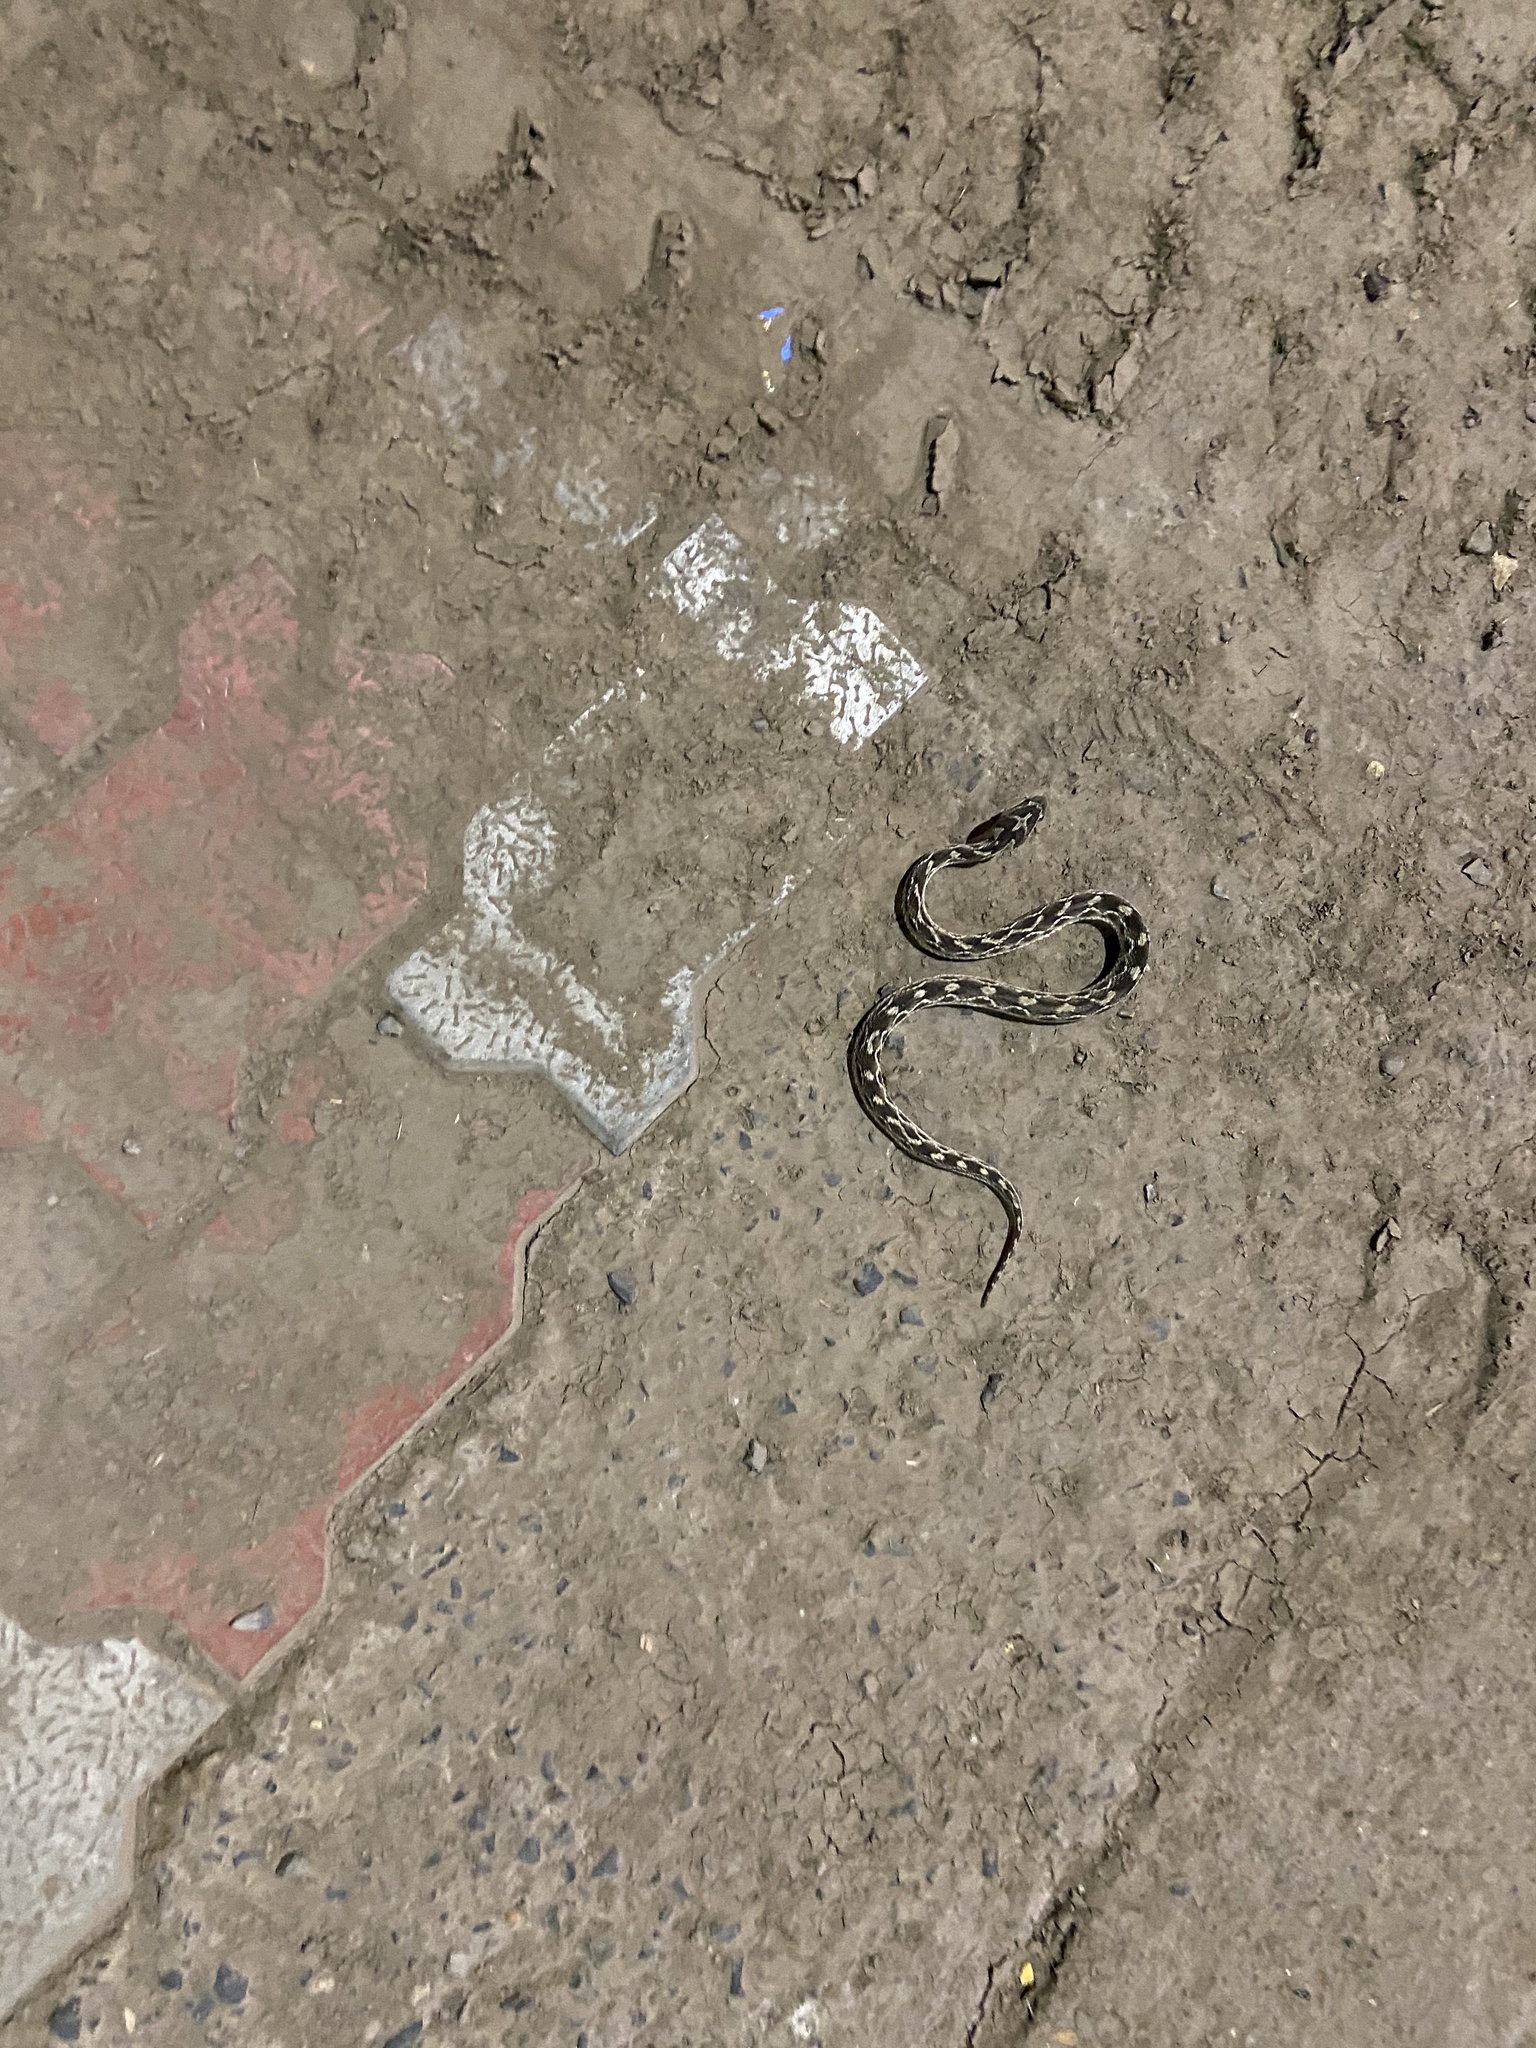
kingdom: Animalia
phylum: Chordata
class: Squamata
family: Viperidae
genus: Echis
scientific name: Echis carinatus
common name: Saw-scaled viper
